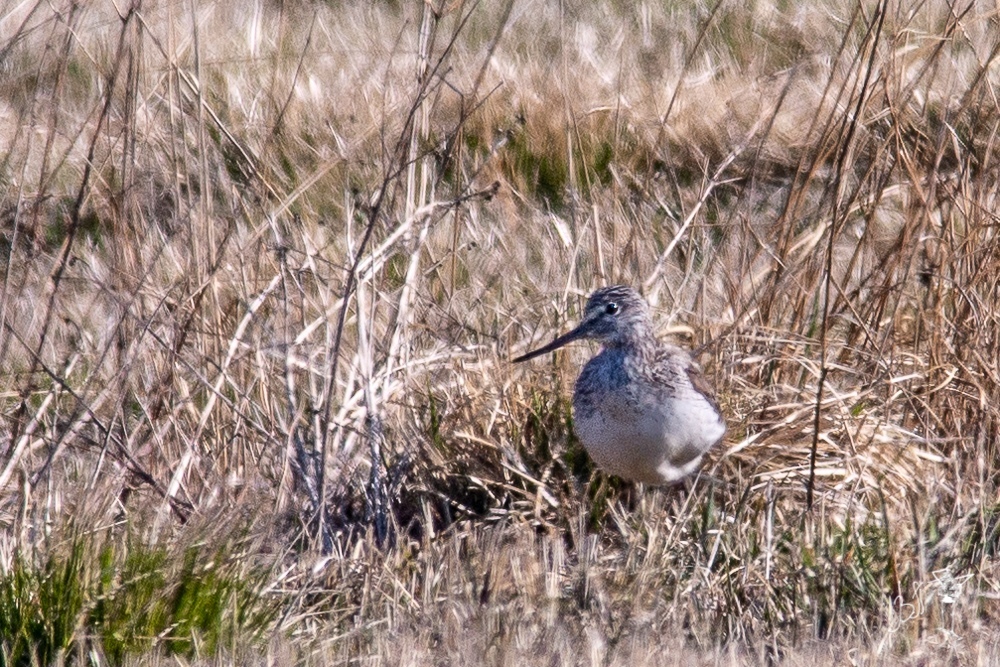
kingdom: Animalia
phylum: Chordata
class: Aves
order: Charadriiformes
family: Scolopacidae
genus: Tringa
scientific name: Tringa nebularia
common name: Common greenshank
